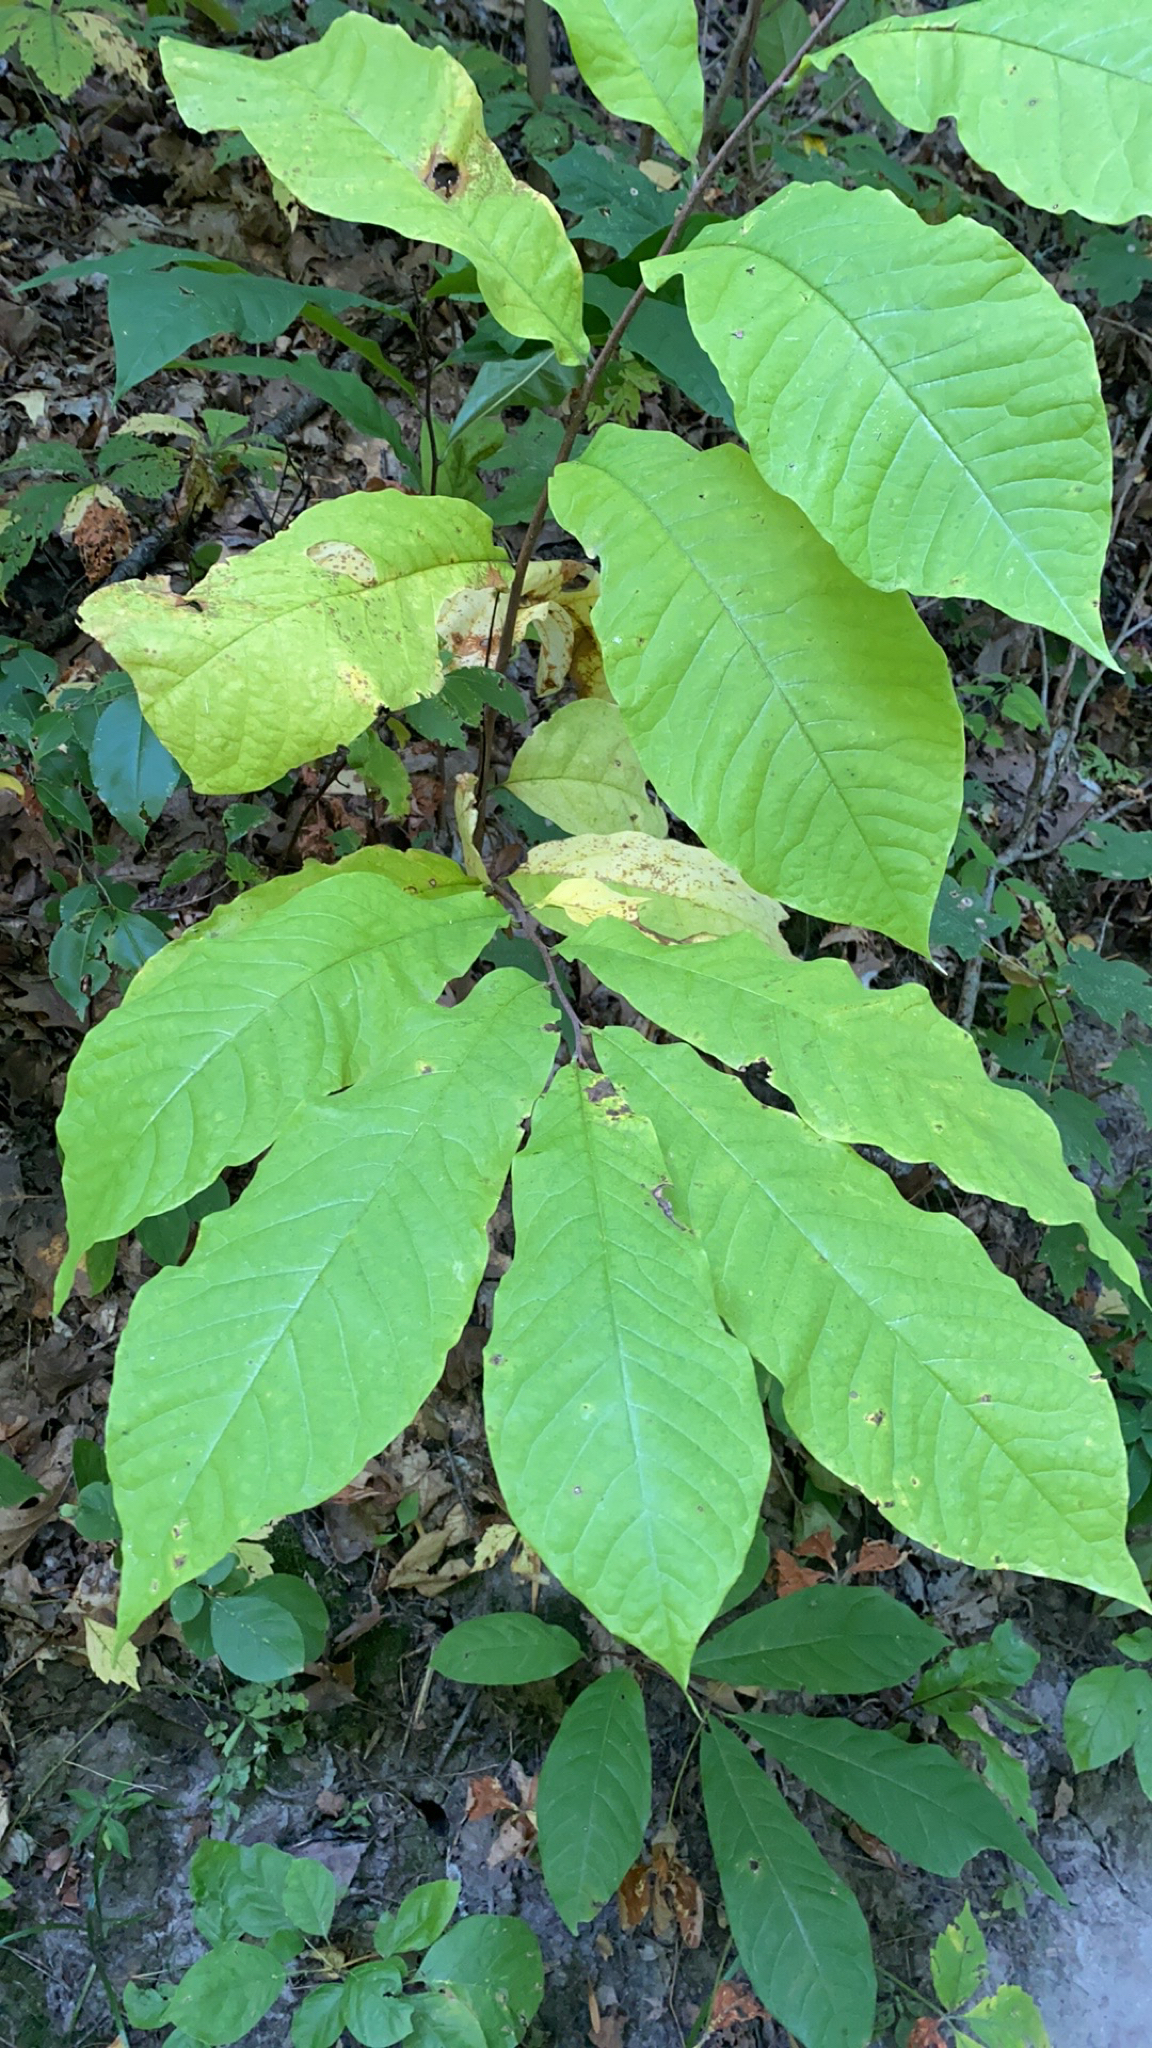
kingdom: Plantae
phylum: Tracheophyta
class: Magnoliopsida
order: Magnoliales
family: Annonaceae
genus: Asimina
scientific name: Asimina triloba
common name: Dog-banana
